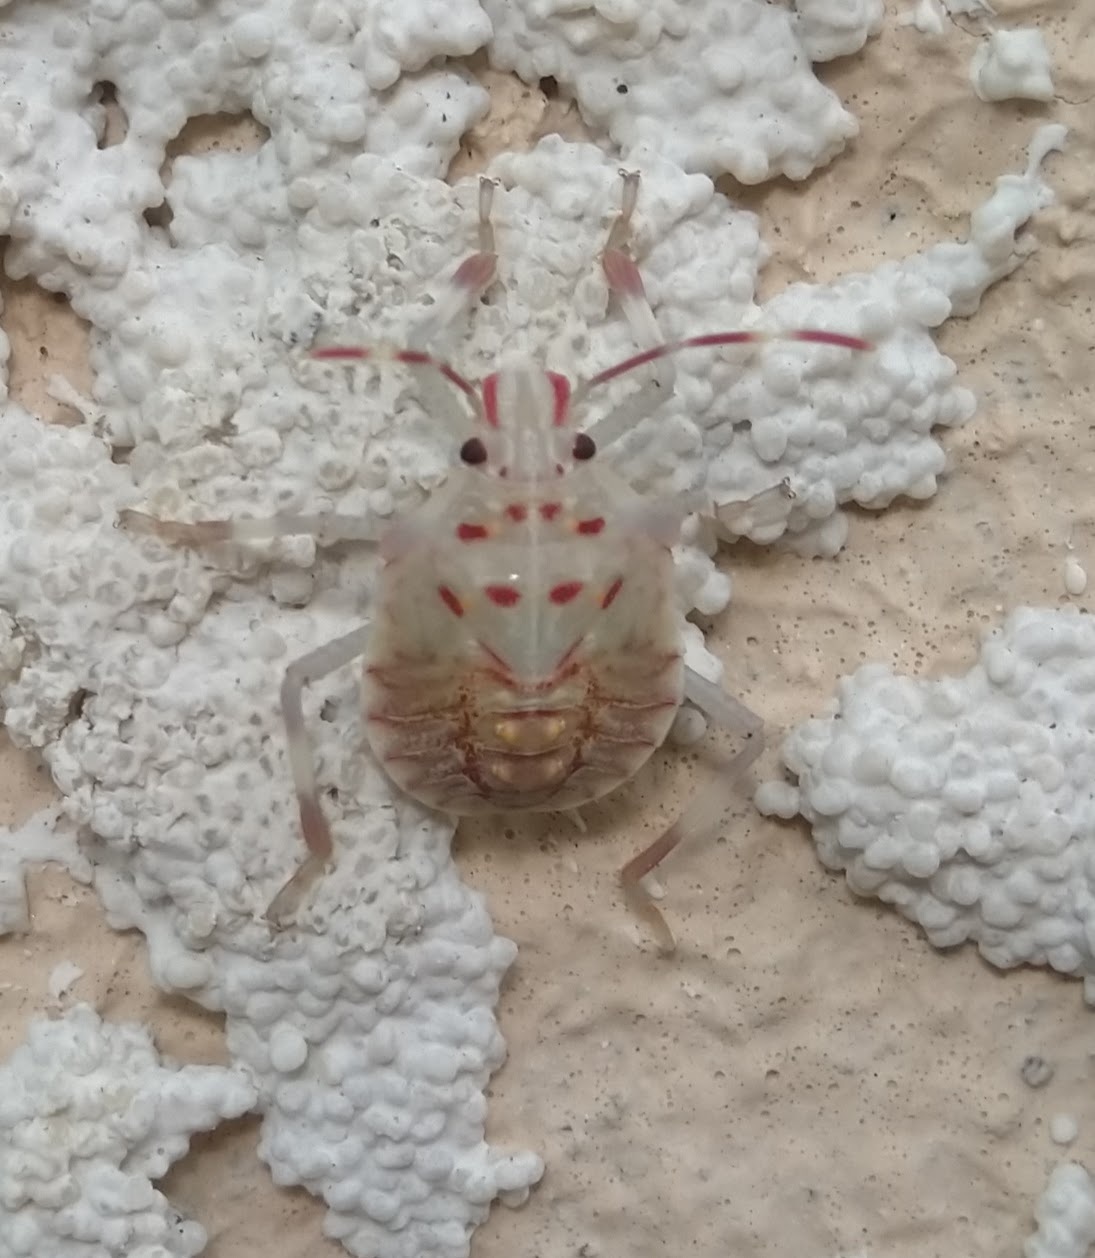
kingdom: Animalia
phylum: Arthropoda
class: Insecta
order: Hemiptera
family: Pentatomidae
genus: Halyomorpha
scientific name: Halyomorpha halys
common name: Brown marmorated stink bug
